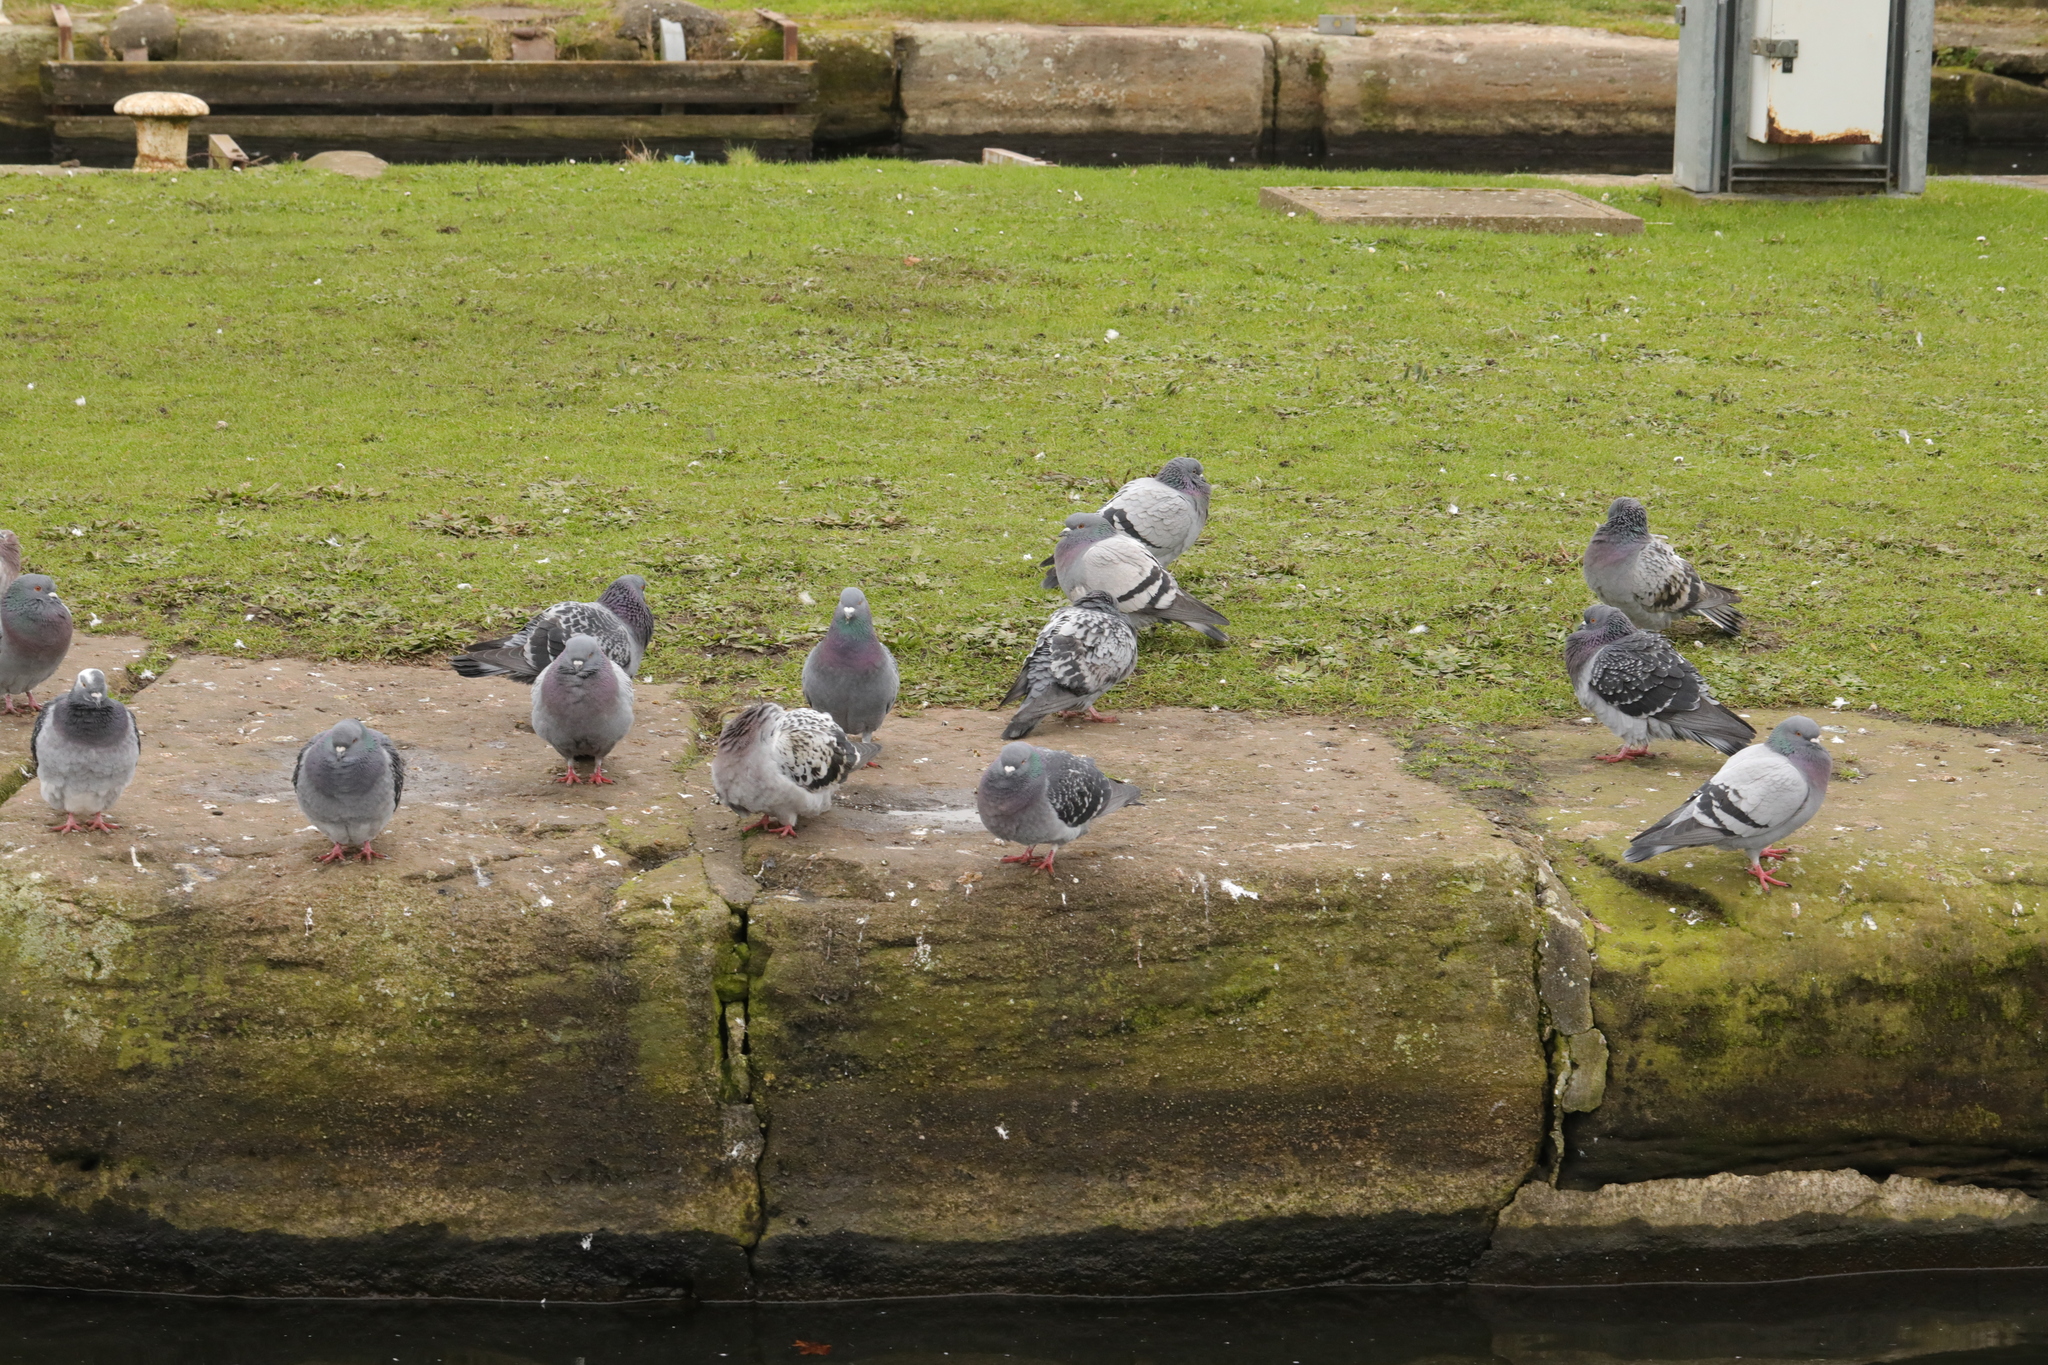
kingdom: Animalia
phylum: Chordata
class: Aves
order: Columbiformes
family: Columbidae
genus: Columba
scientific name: Columba livia
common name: Rock pigeon
